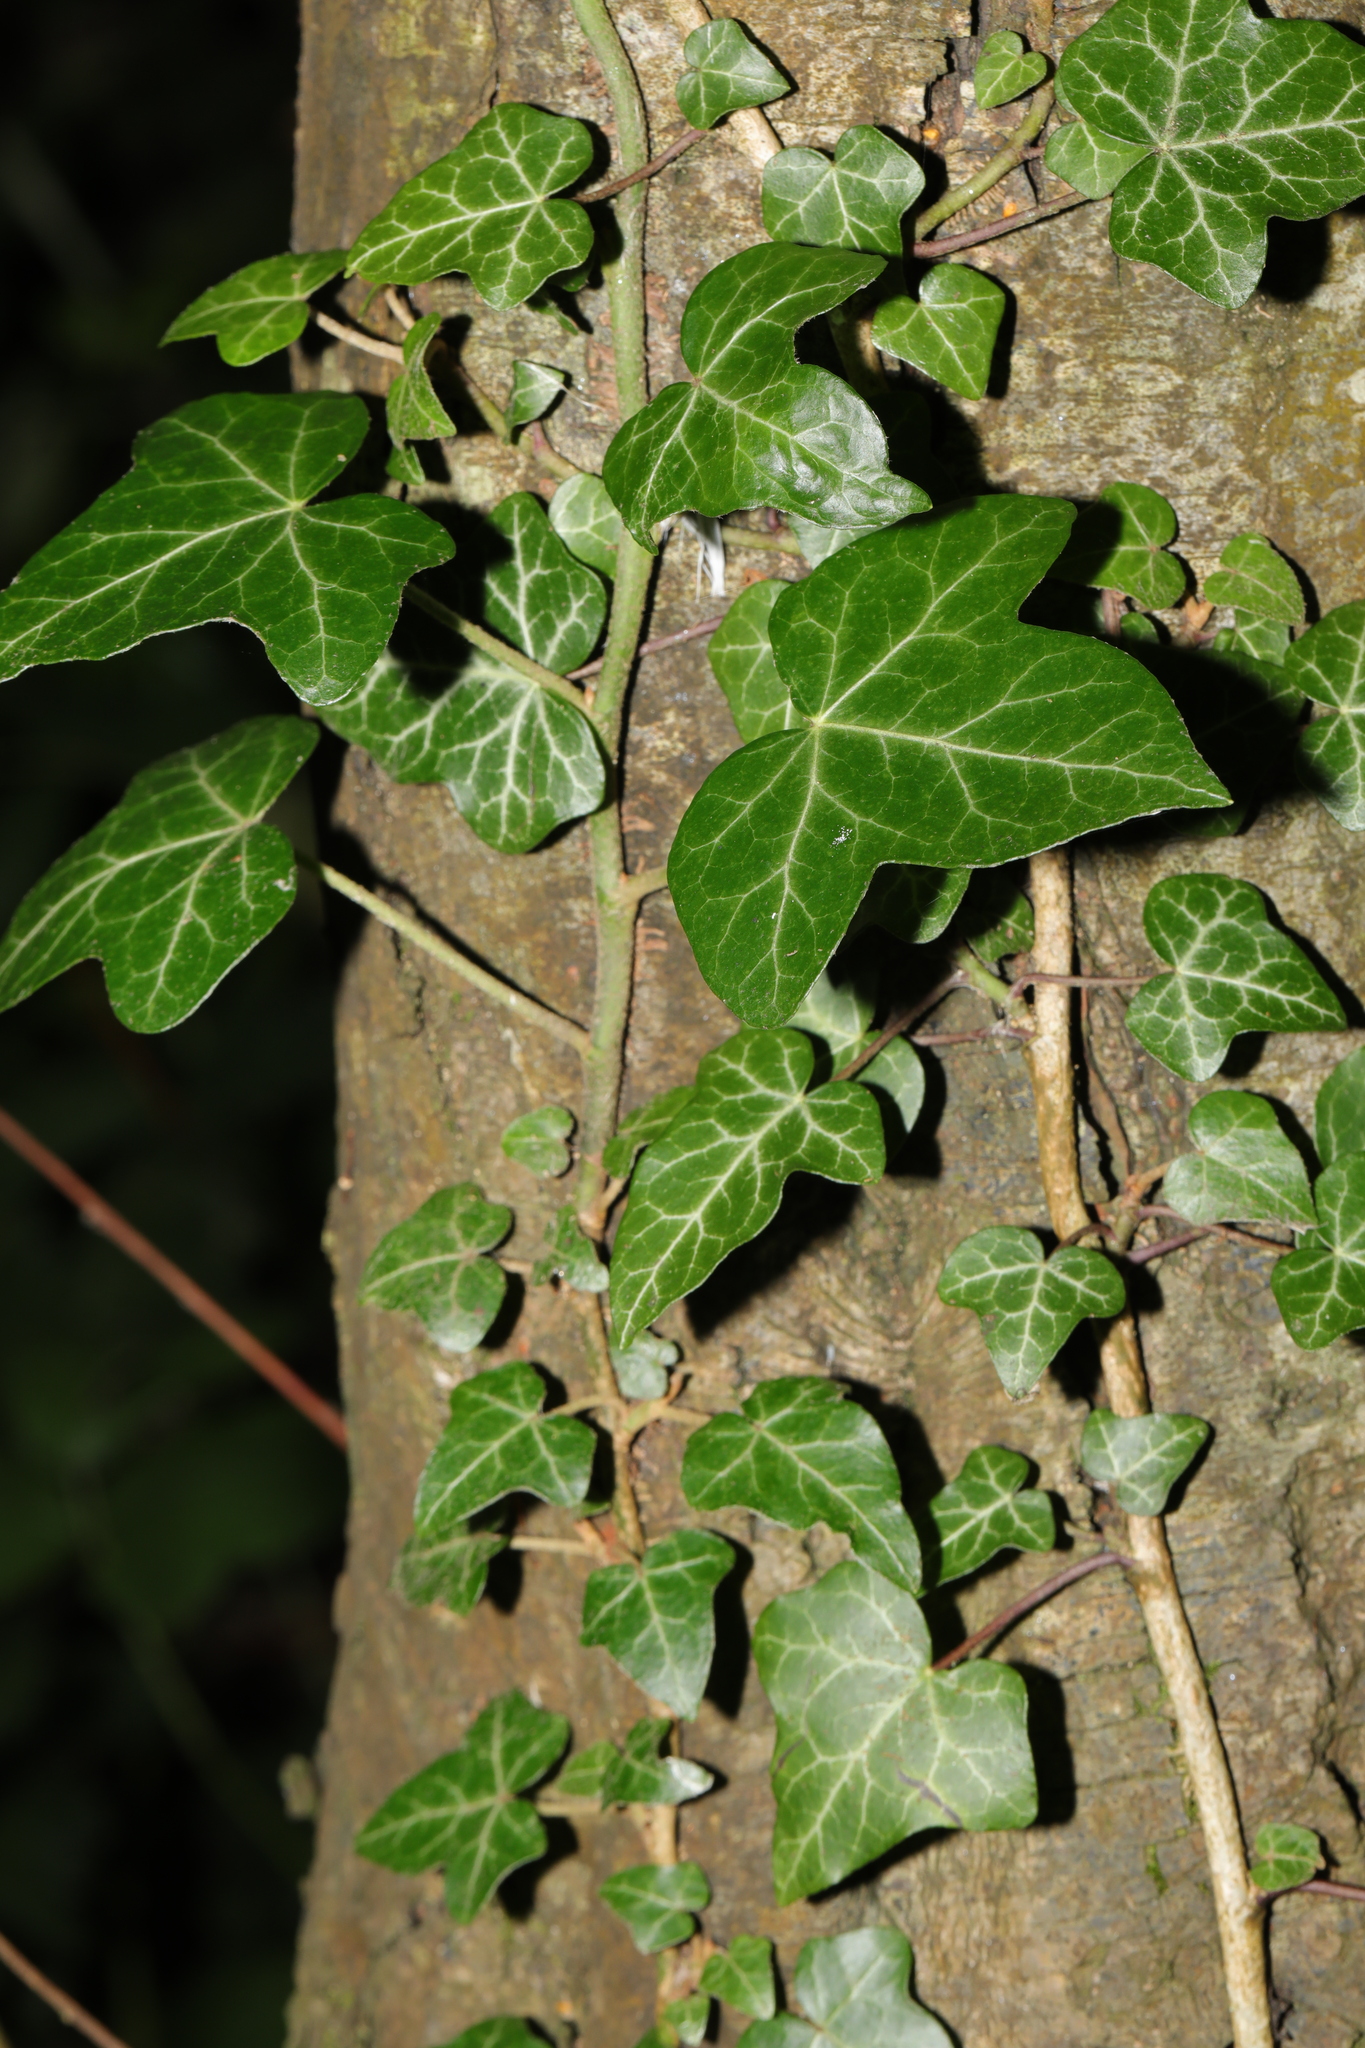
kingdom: Plantae
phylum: Tracheophyta
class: Magnoliopsida
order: Apiales
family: Araliaceae
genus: Hedera
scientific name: Hedera helix
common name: Ivy
